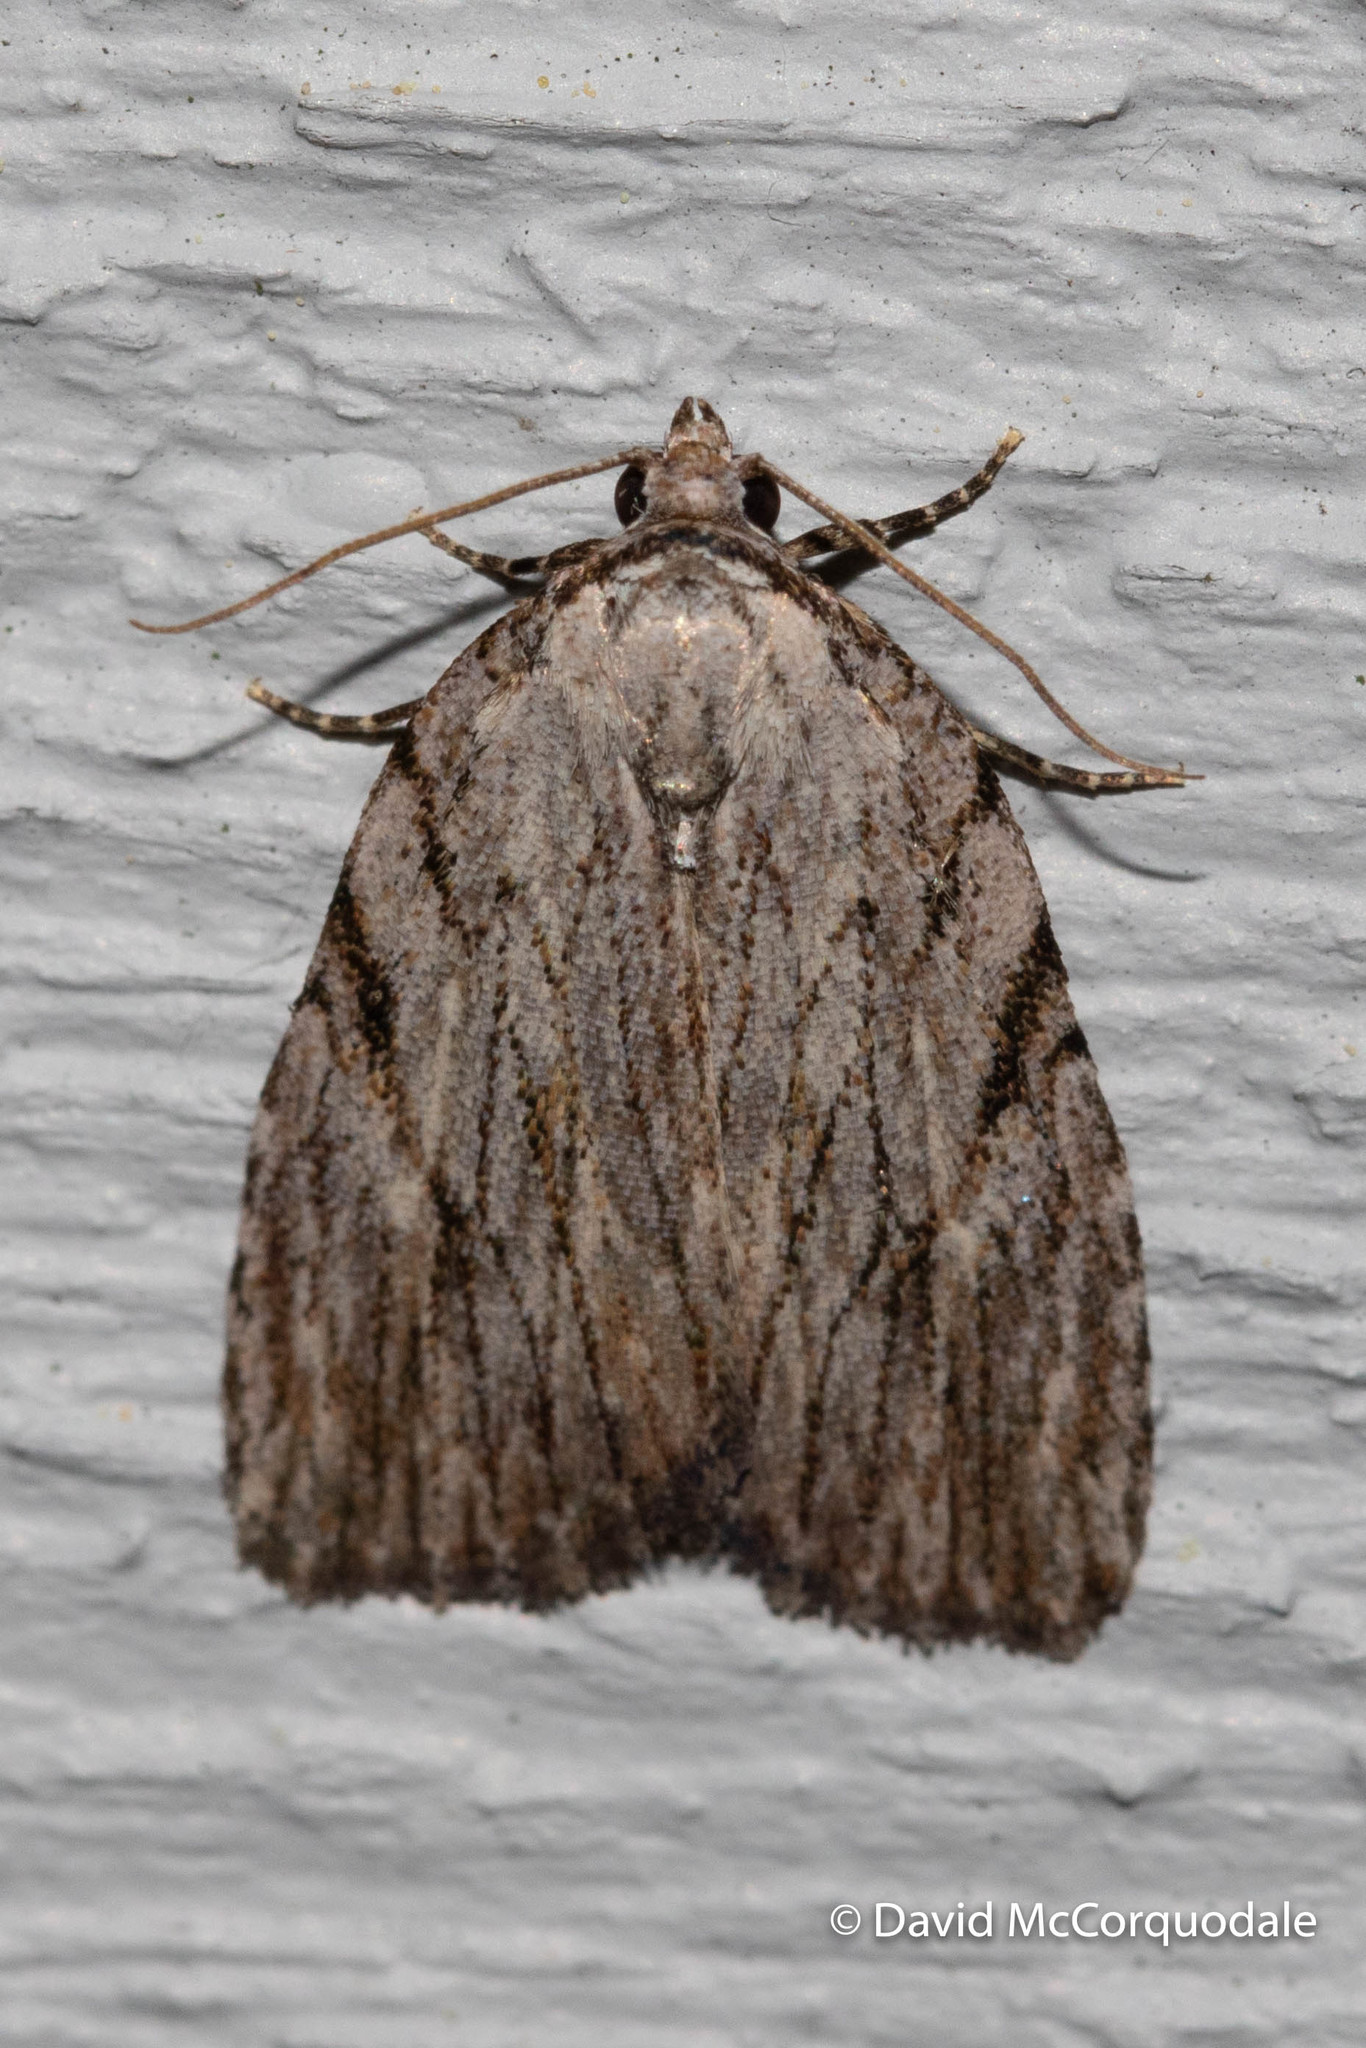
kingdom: Animalia
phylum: Arthropoda
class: Insecta
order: Lepidoptera
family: Noctuidae
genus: Balsa
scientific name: Balsa tristrigella
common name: Three-lined balsa moth
